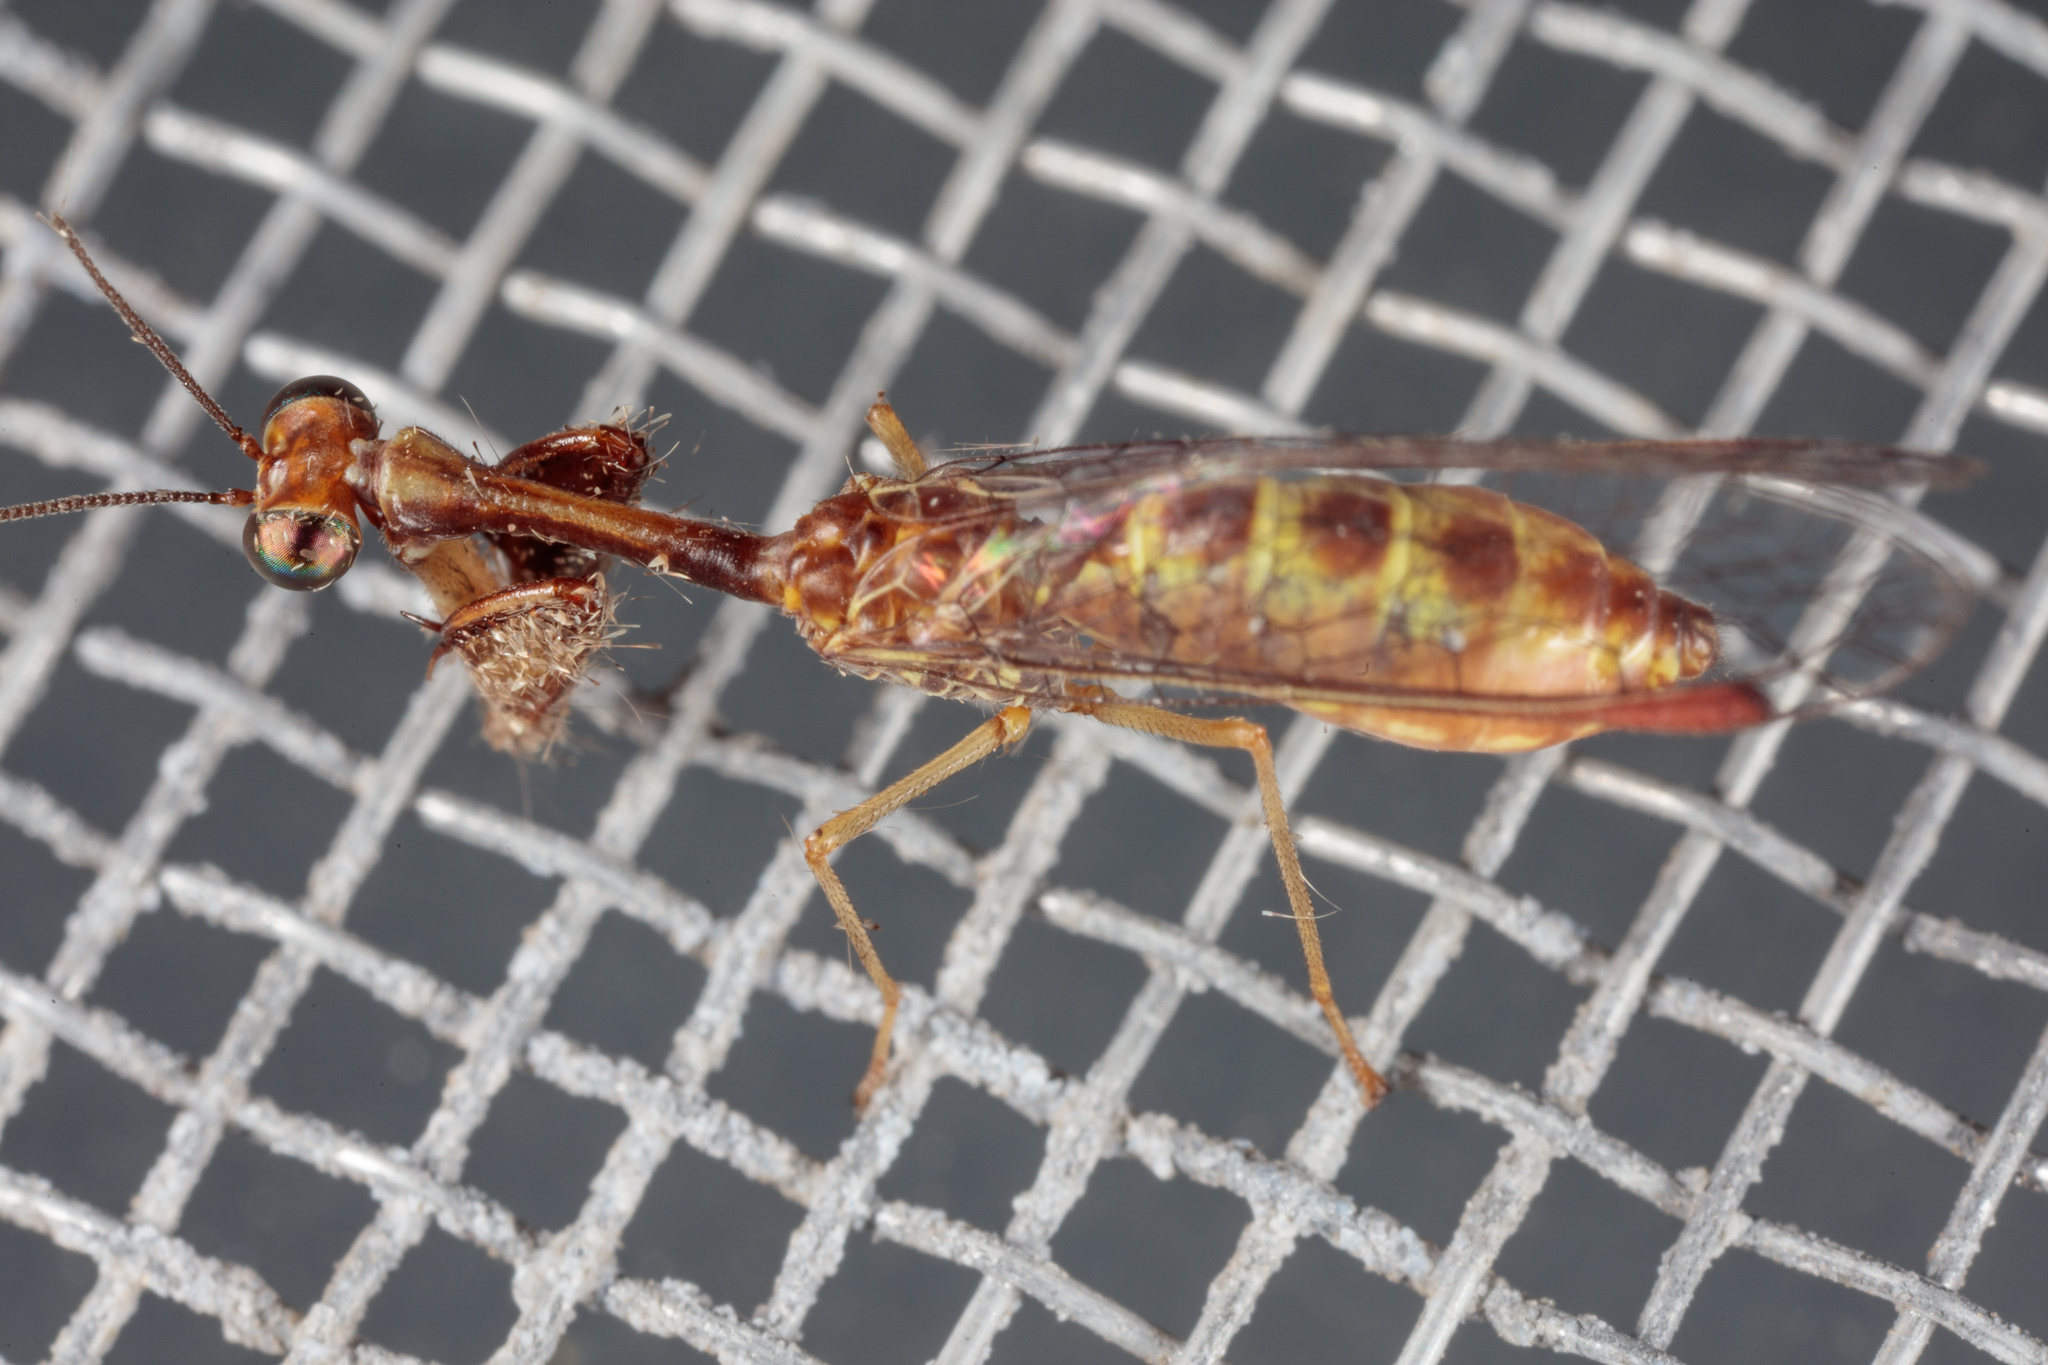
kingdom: Animalia
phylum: Arthropoda
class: Insecta
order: Neuroptera
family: Mantispidae
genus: Leptomantispa
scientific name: Leptomantispa pulchella
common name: Stevens's mantidfly
